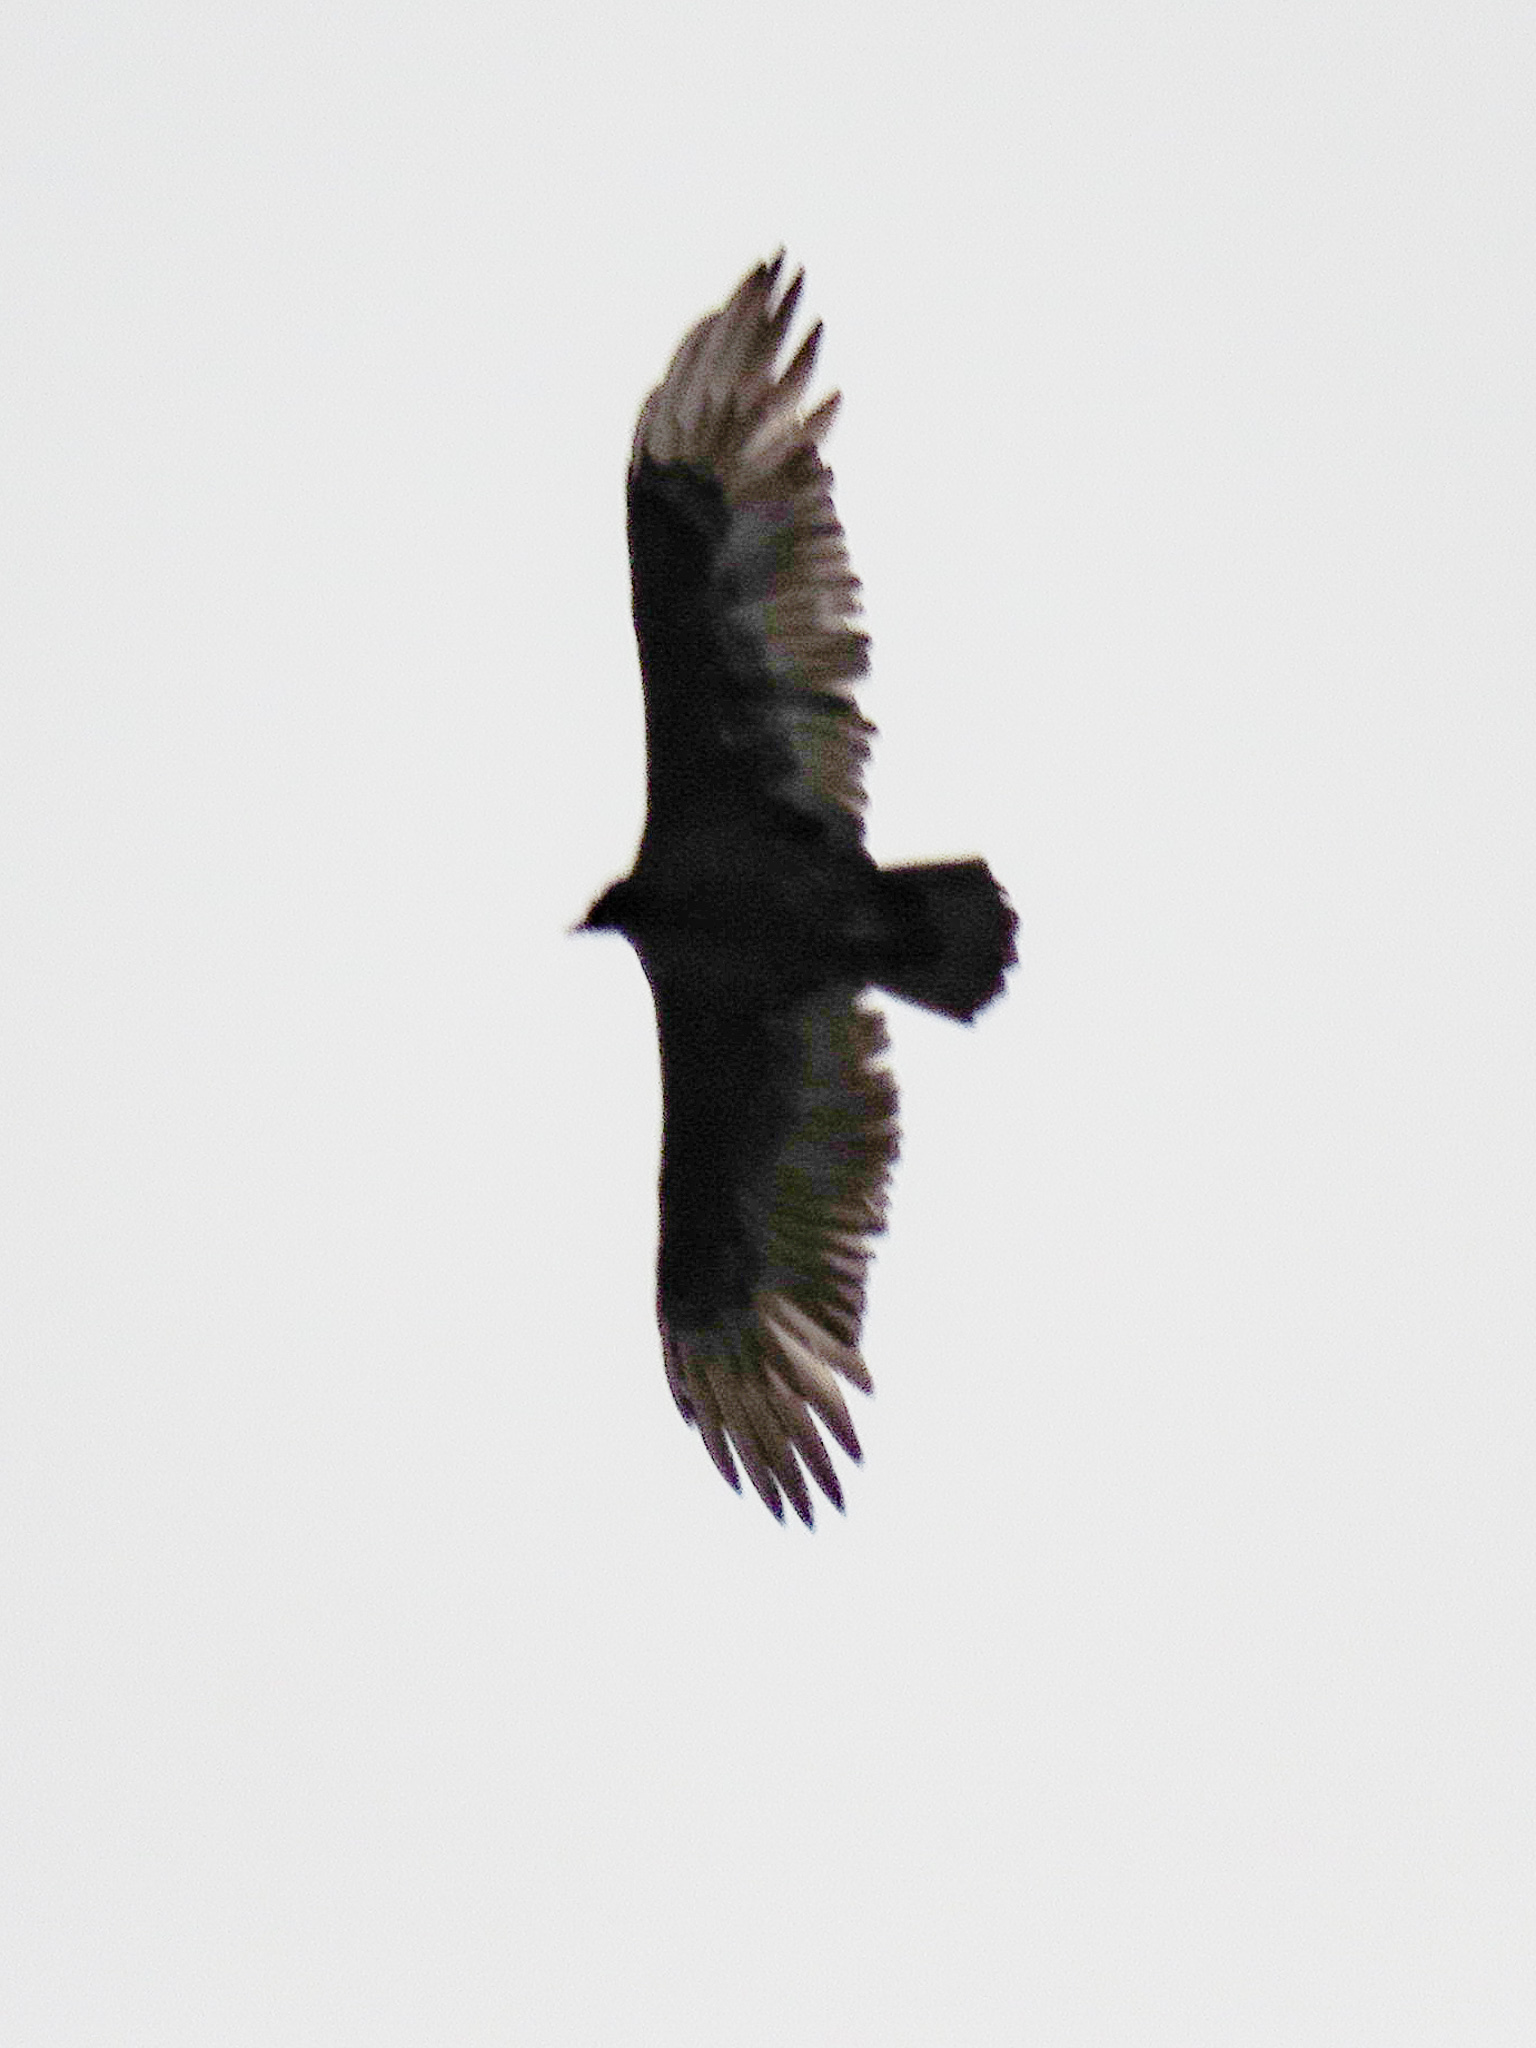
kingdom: Animalia
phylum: Chordata
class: Aves
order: Accipitriformes
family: Cathartidae
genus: Cathartes
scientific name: Cathartes aura
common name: Turkey vulture
